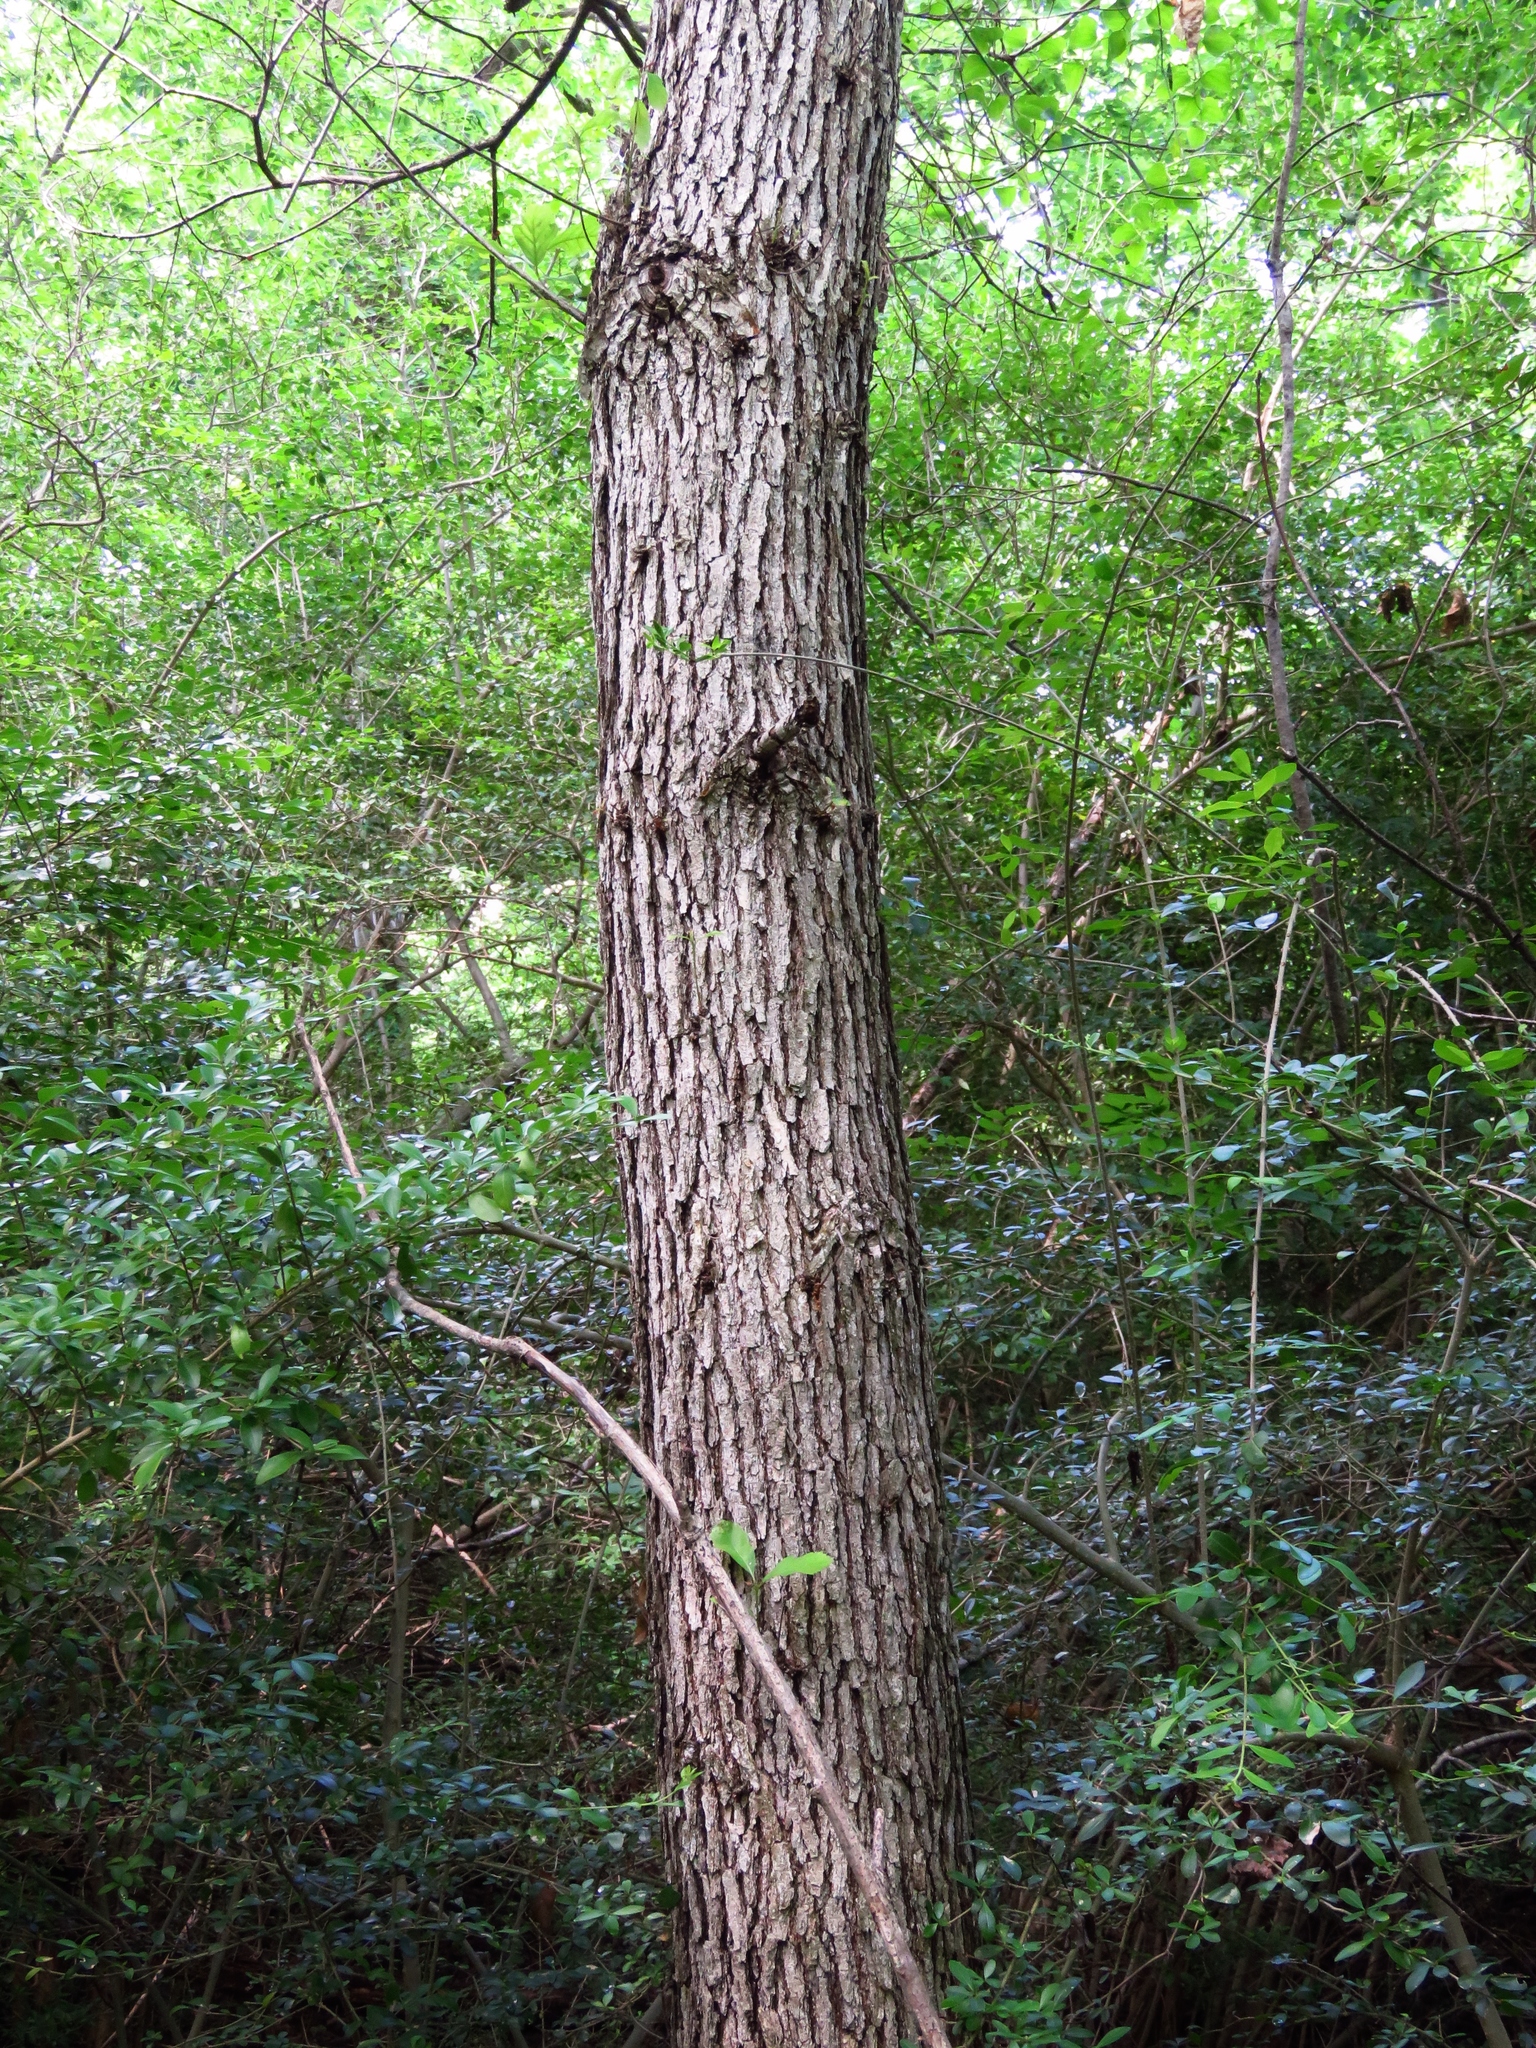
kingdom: Plantae
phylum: Tracheophyta
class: Magnoliopsida
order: Fagales
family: Fagaceae
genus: Quercus
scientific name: Quercus muehlenbergii
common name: Chinkapin oak
